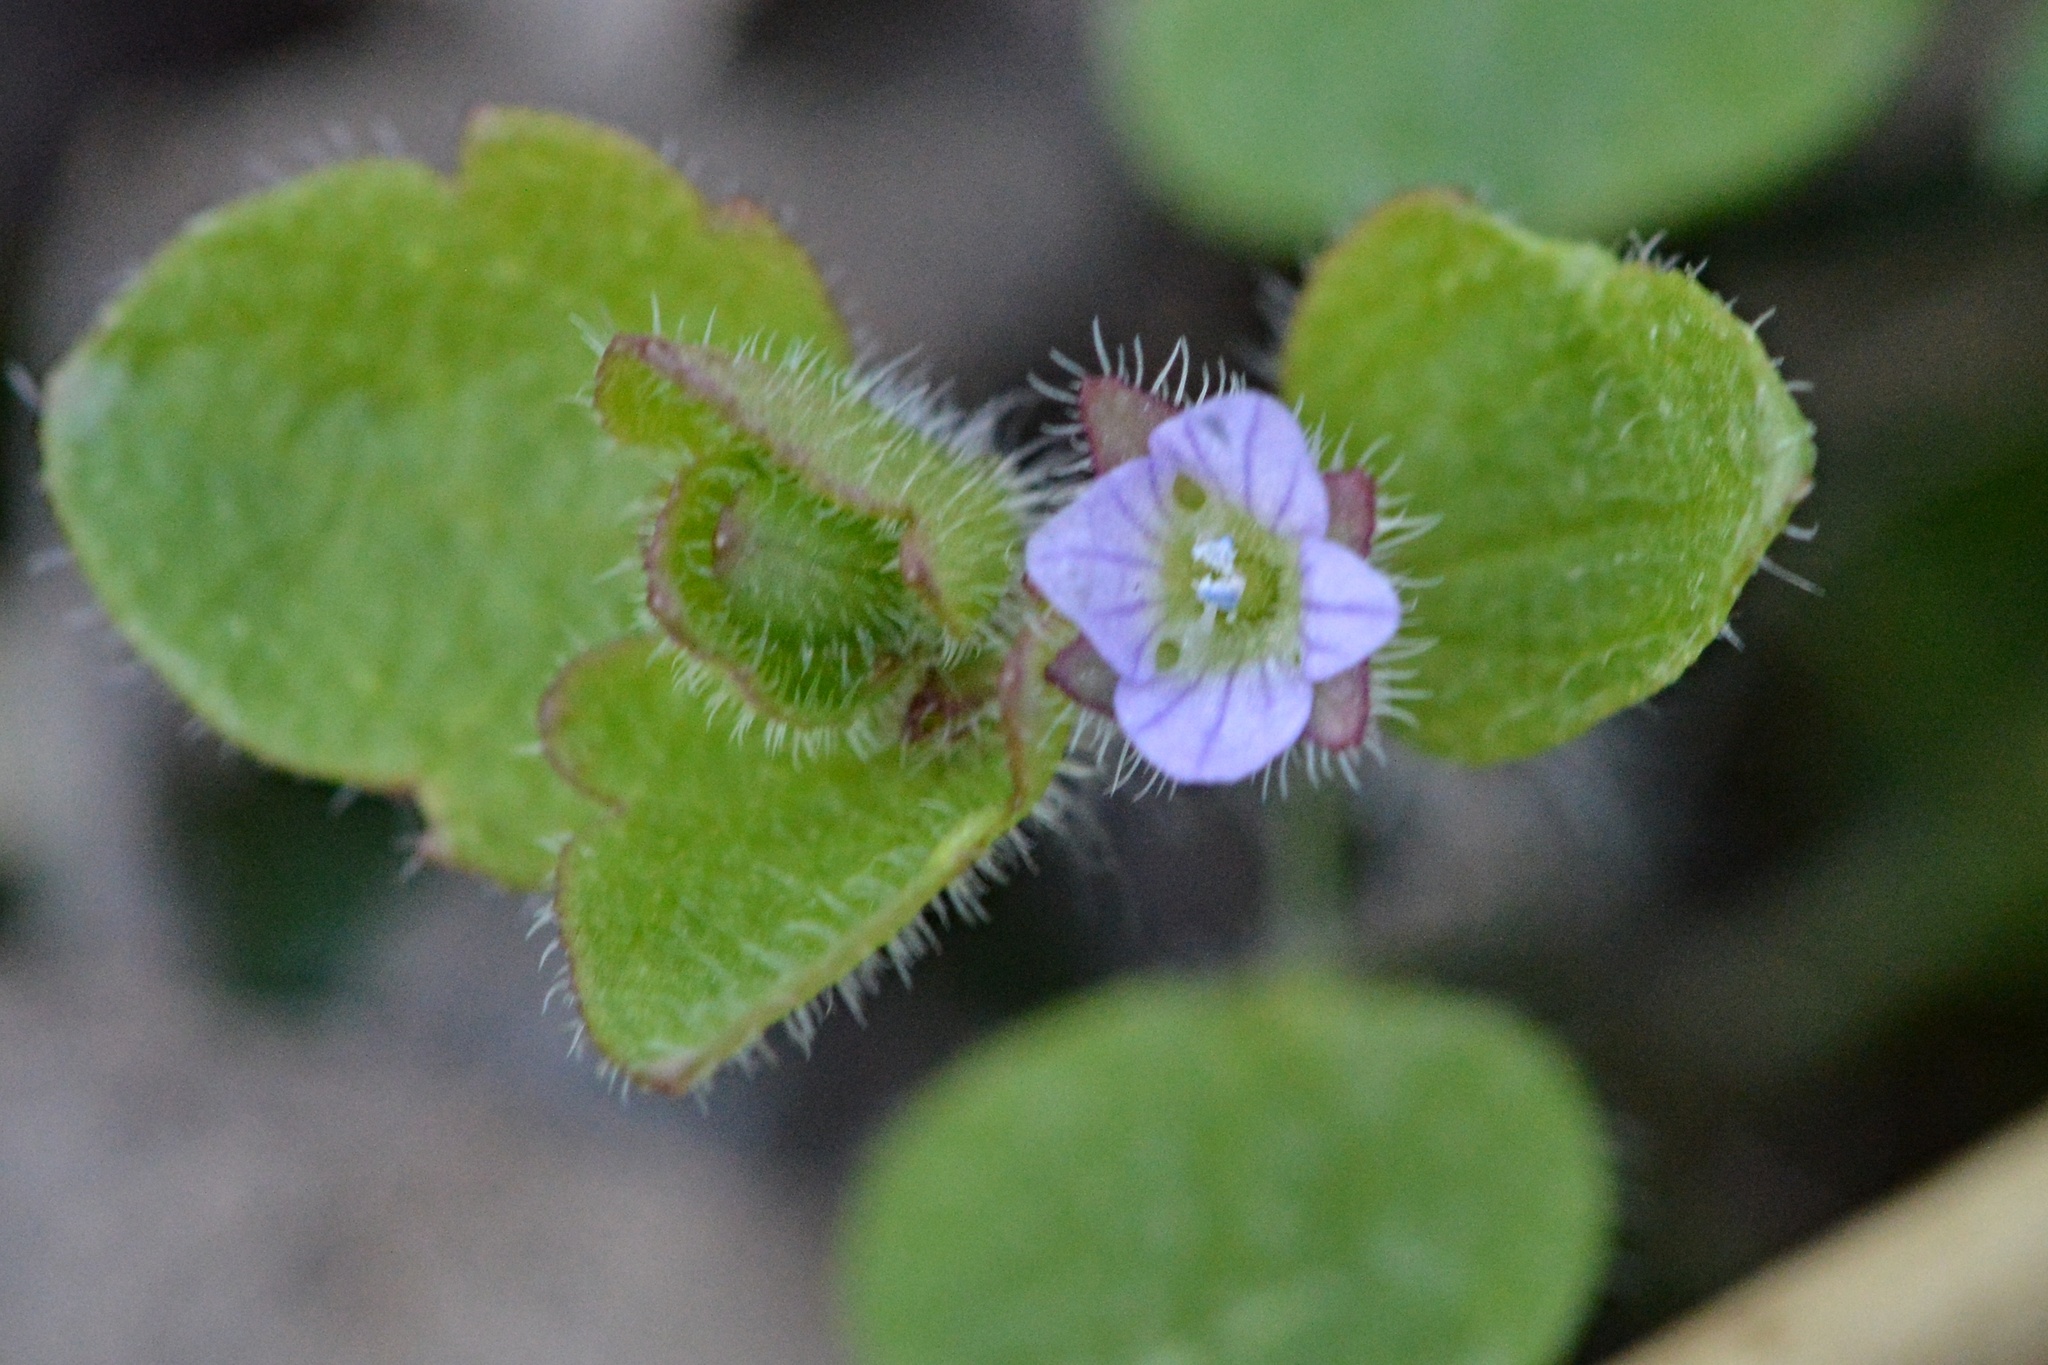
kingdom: Plantae
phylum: Tracheophyta
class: Magnoliopsida
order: Lamiales
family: Plantaginaceae
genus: Veronica
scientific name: Veronica sublobata
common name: False ivy-leaved speedwell
